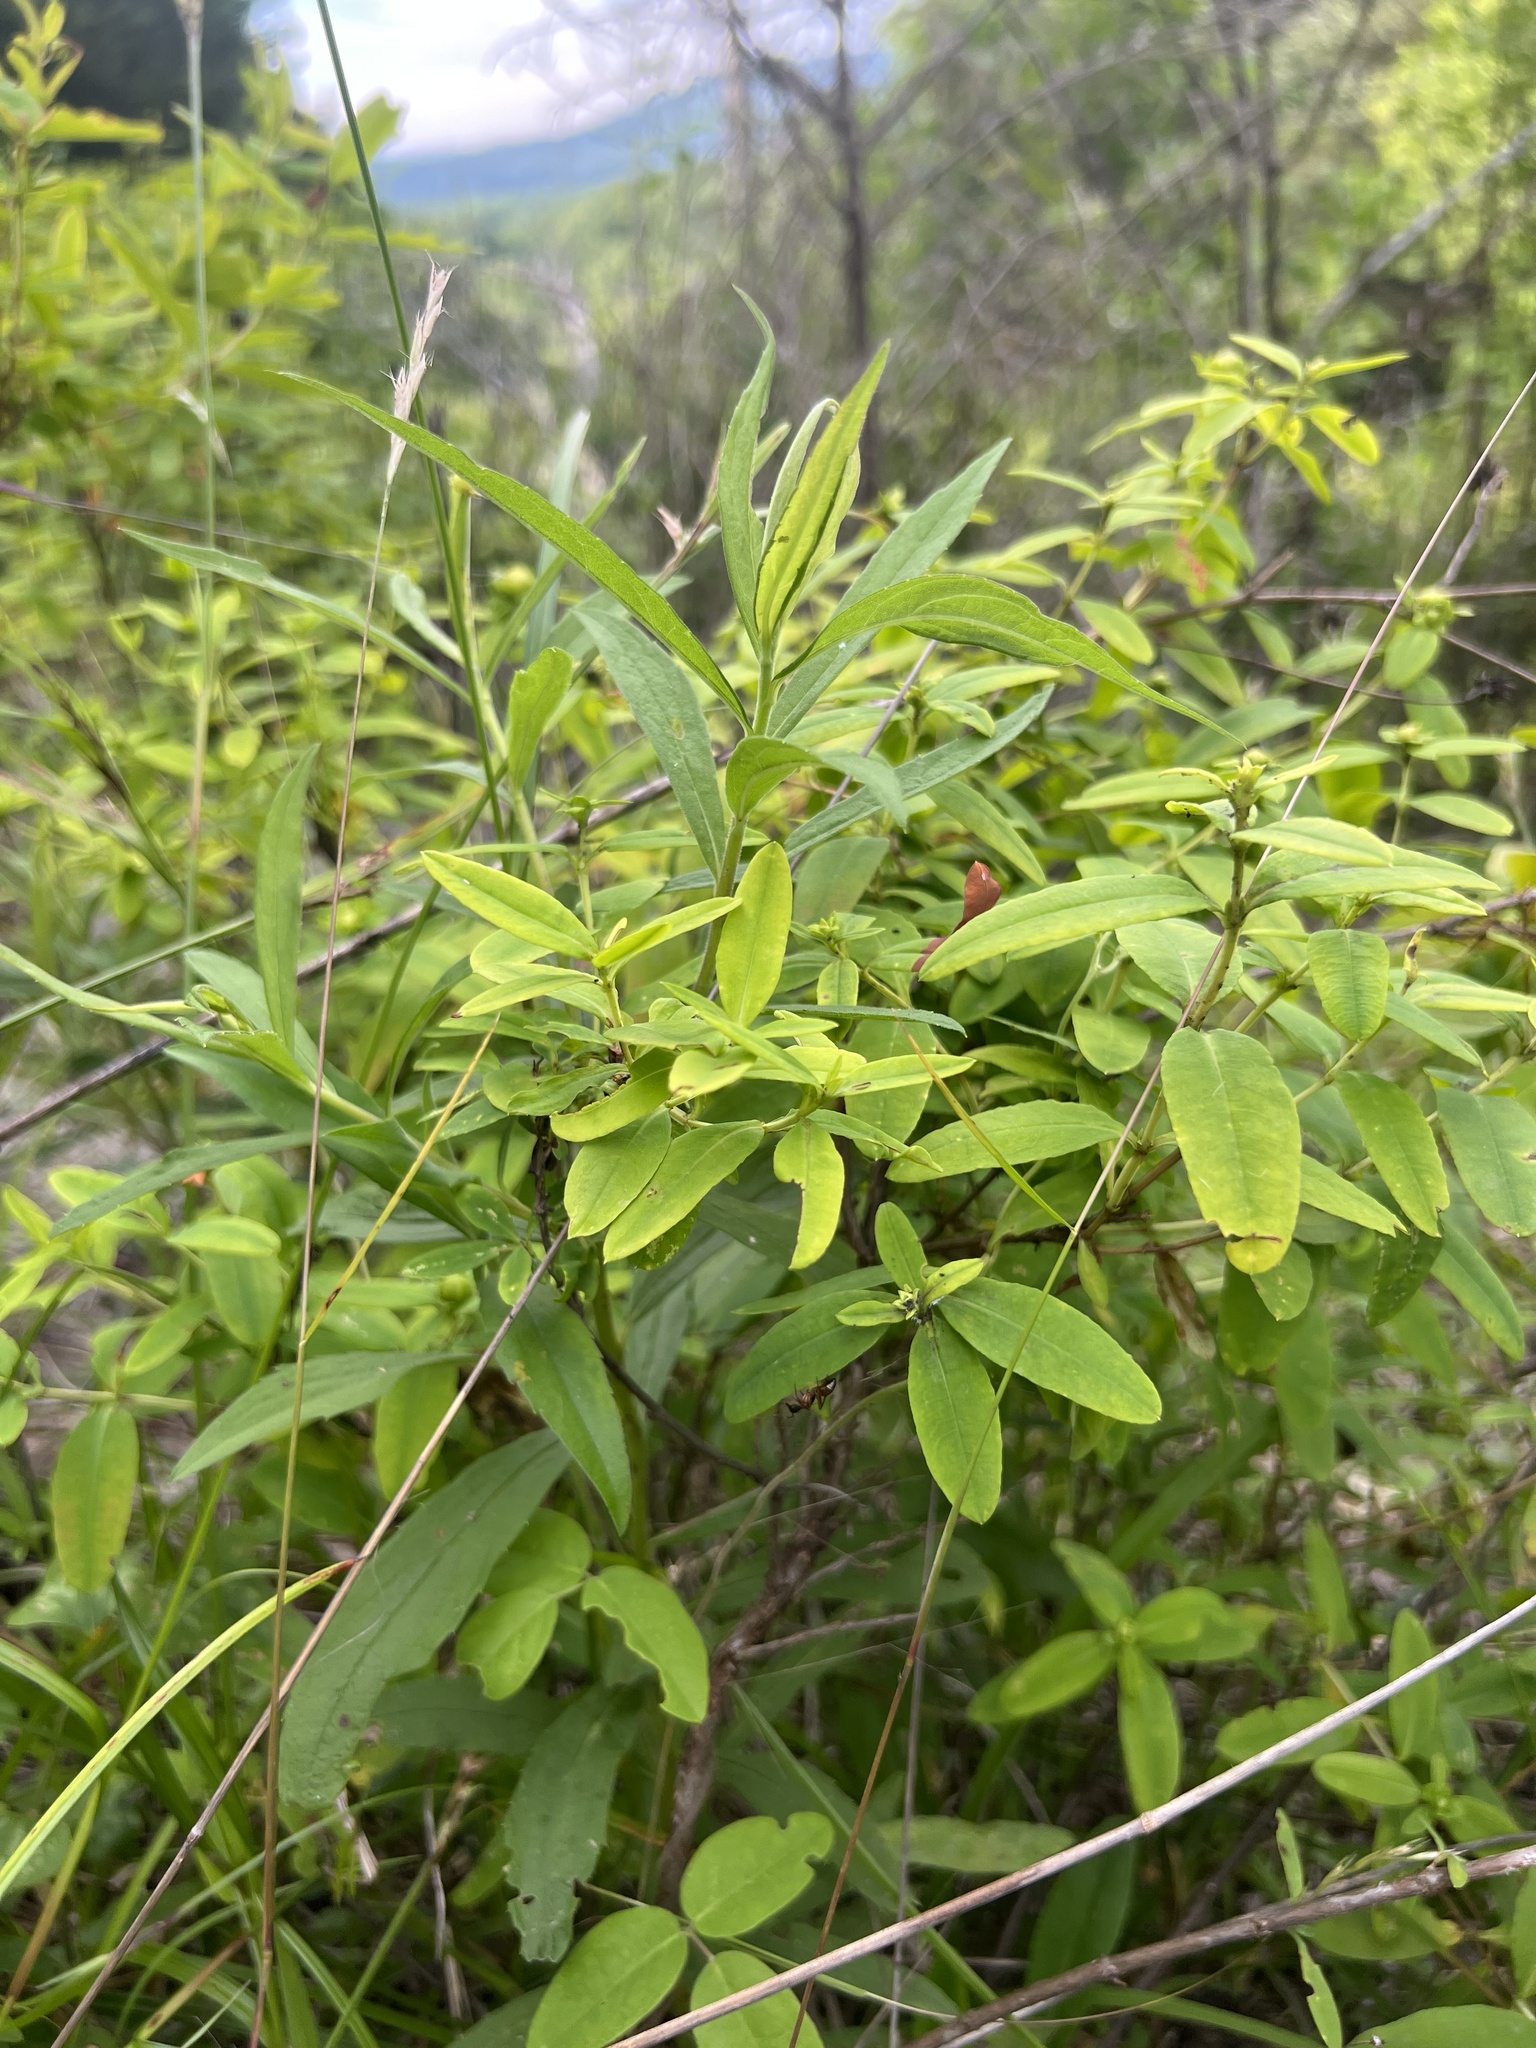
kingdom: Plantae
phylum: Tracheophyta
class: Magnoliopsida
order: Malpighiales
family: Hypericaceae
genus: Hypericum
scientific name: Hypericum frondosum
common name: Golden st. john's-wort
